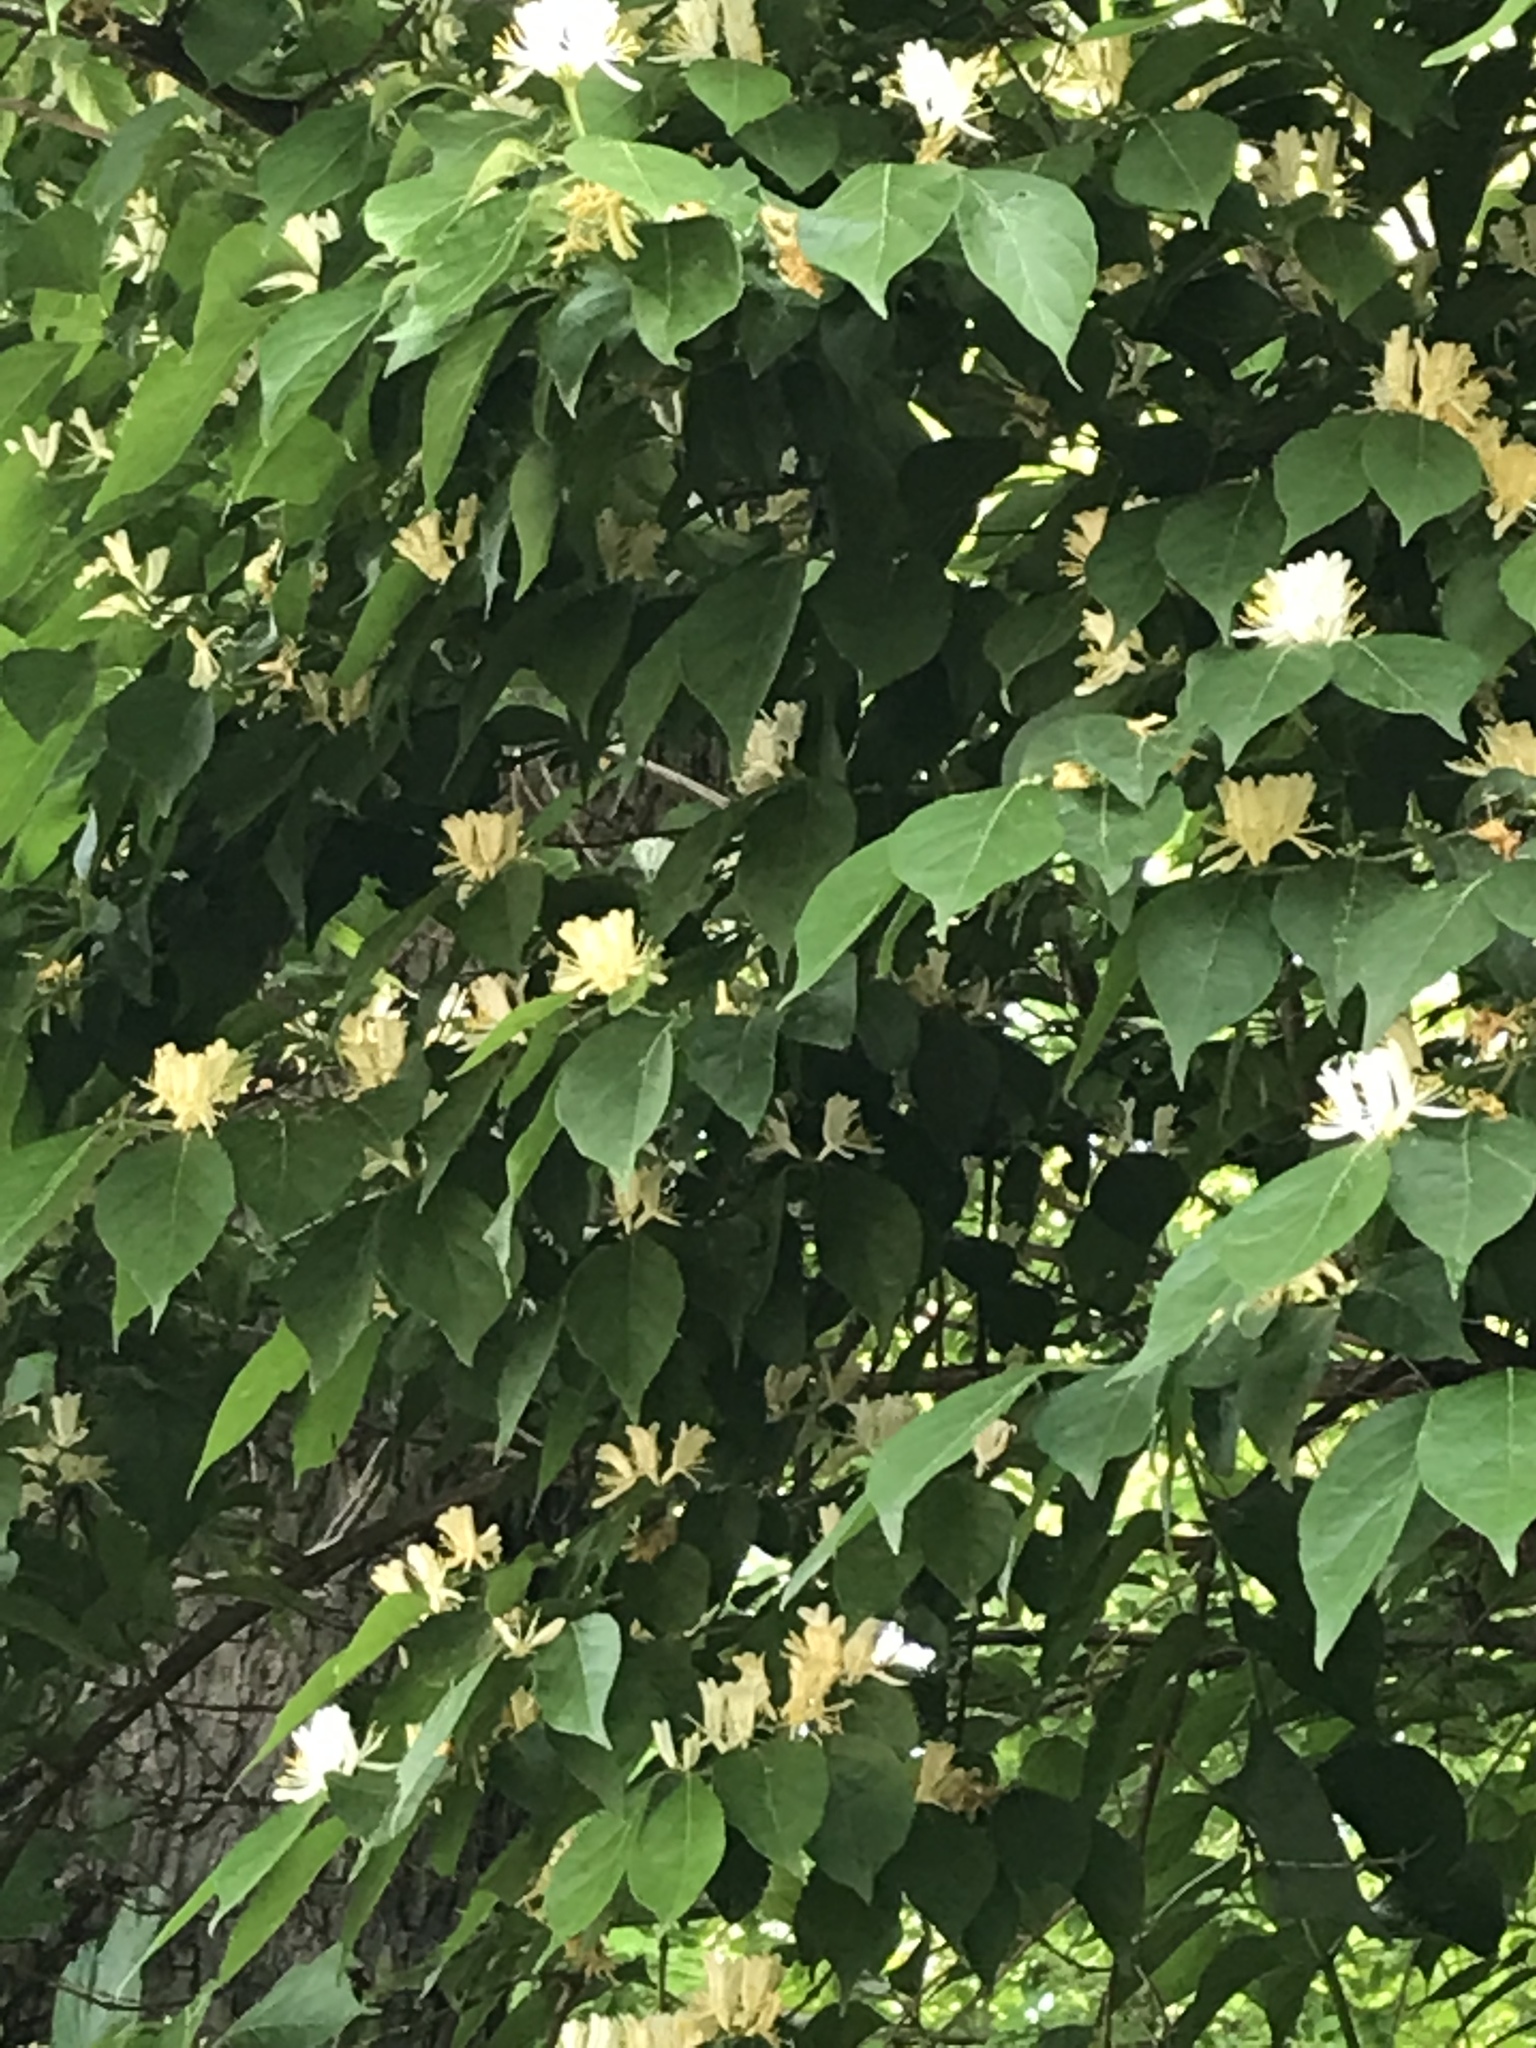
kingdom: Plantae
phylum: Tracheophyta
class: Magnoliopsida
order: Dipsacales
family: Caprifoliaceae
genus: Lonicera
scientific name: Lonicera maackii
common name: Amur honeysuckle
